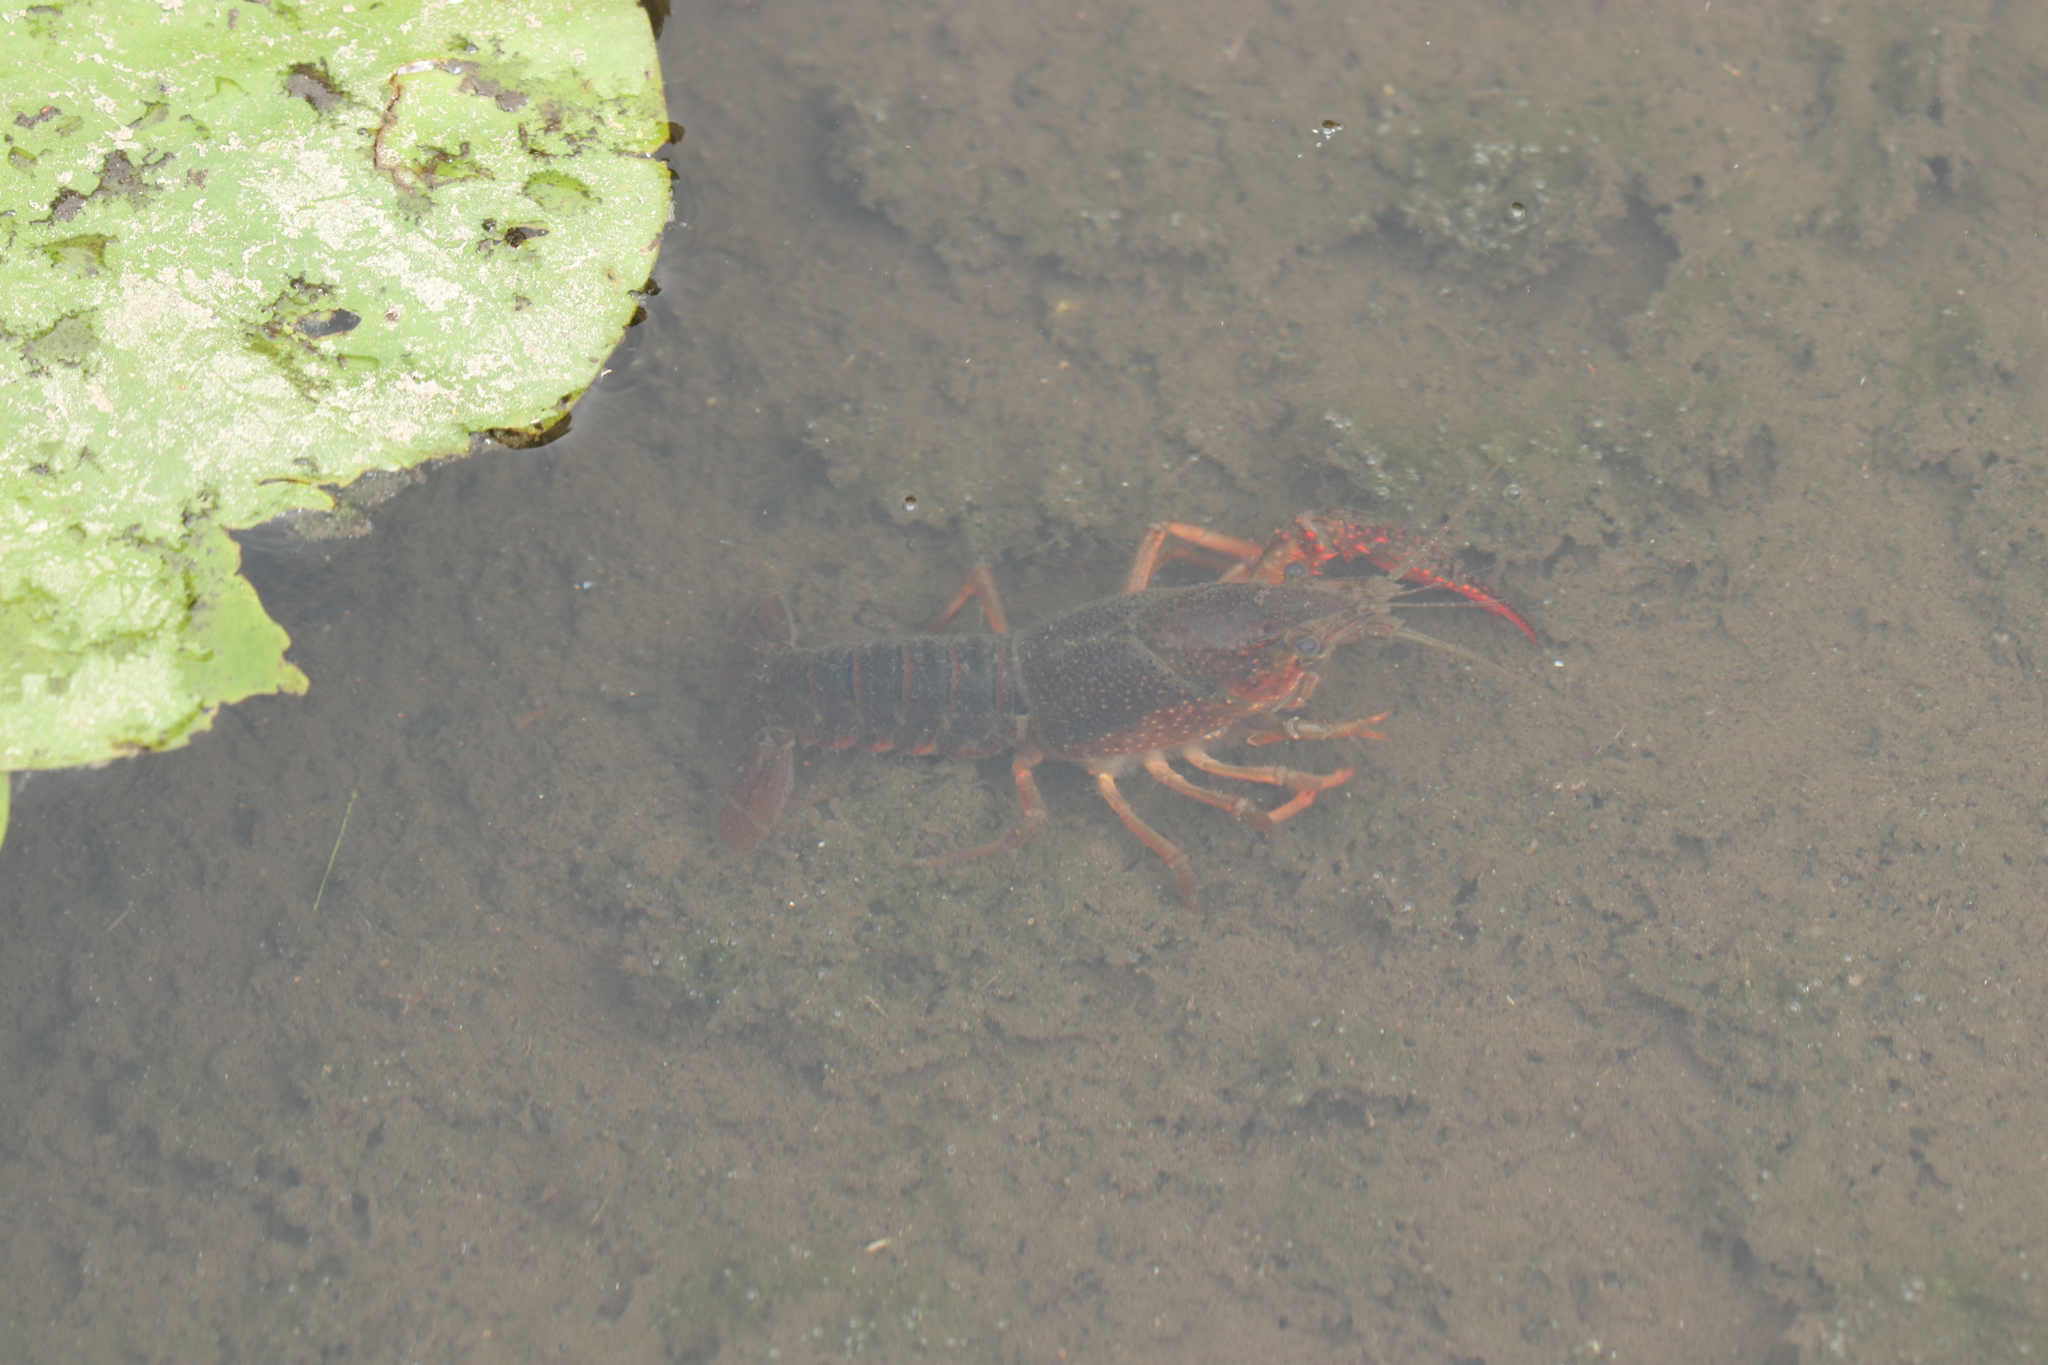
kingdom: Animalia
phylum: Arthropoda
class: Malacostraca
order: Decapoda
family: Cambaridae
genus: Procambarus
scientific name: Procambarus clarkii
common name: Red swamp crayfish
